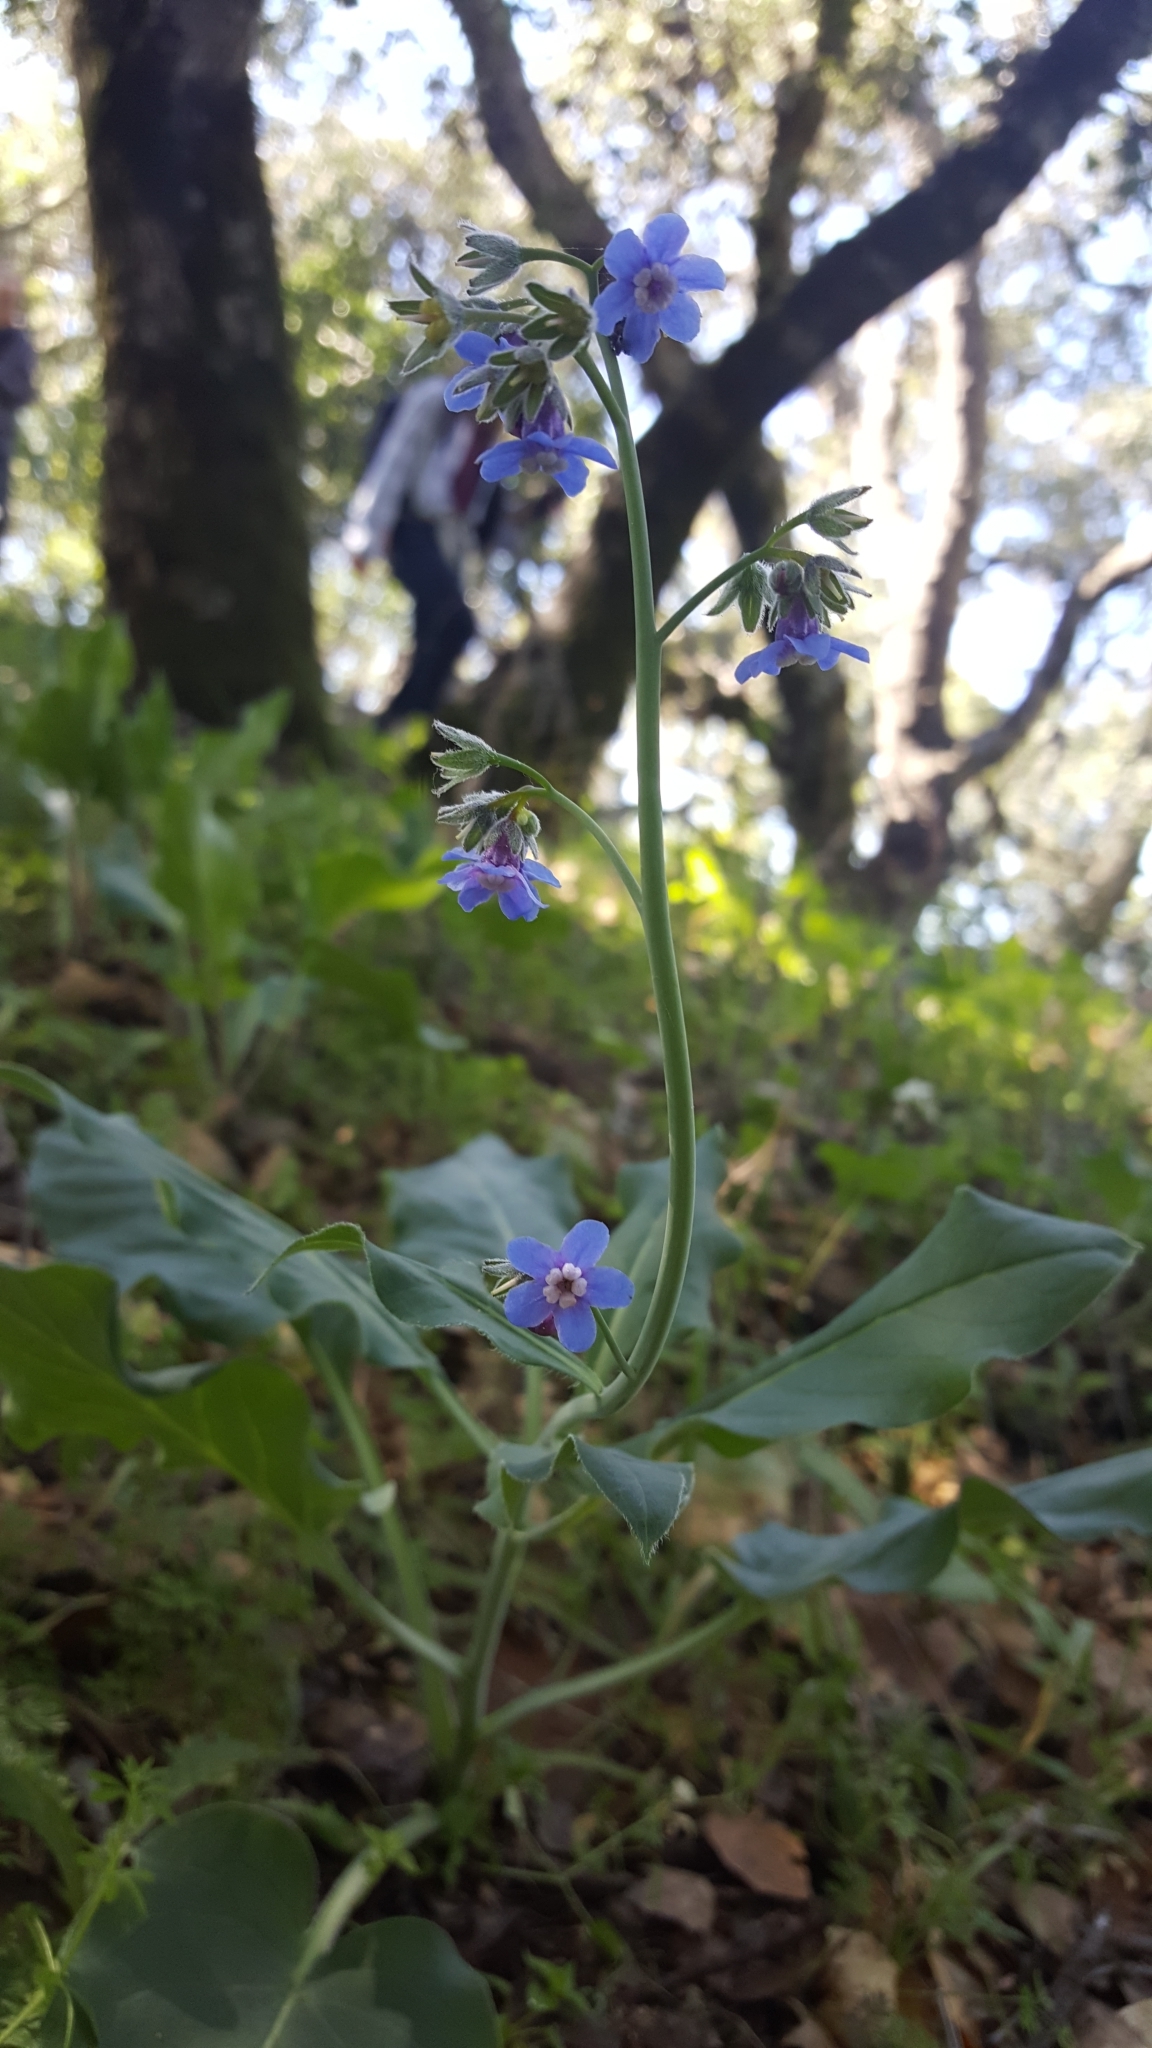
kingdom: Plantae
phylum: Tracheophyta
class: Magnoliopsida
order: Boraginales
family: Boraginaceae
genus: Adelinia
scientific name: Adelinia grande
